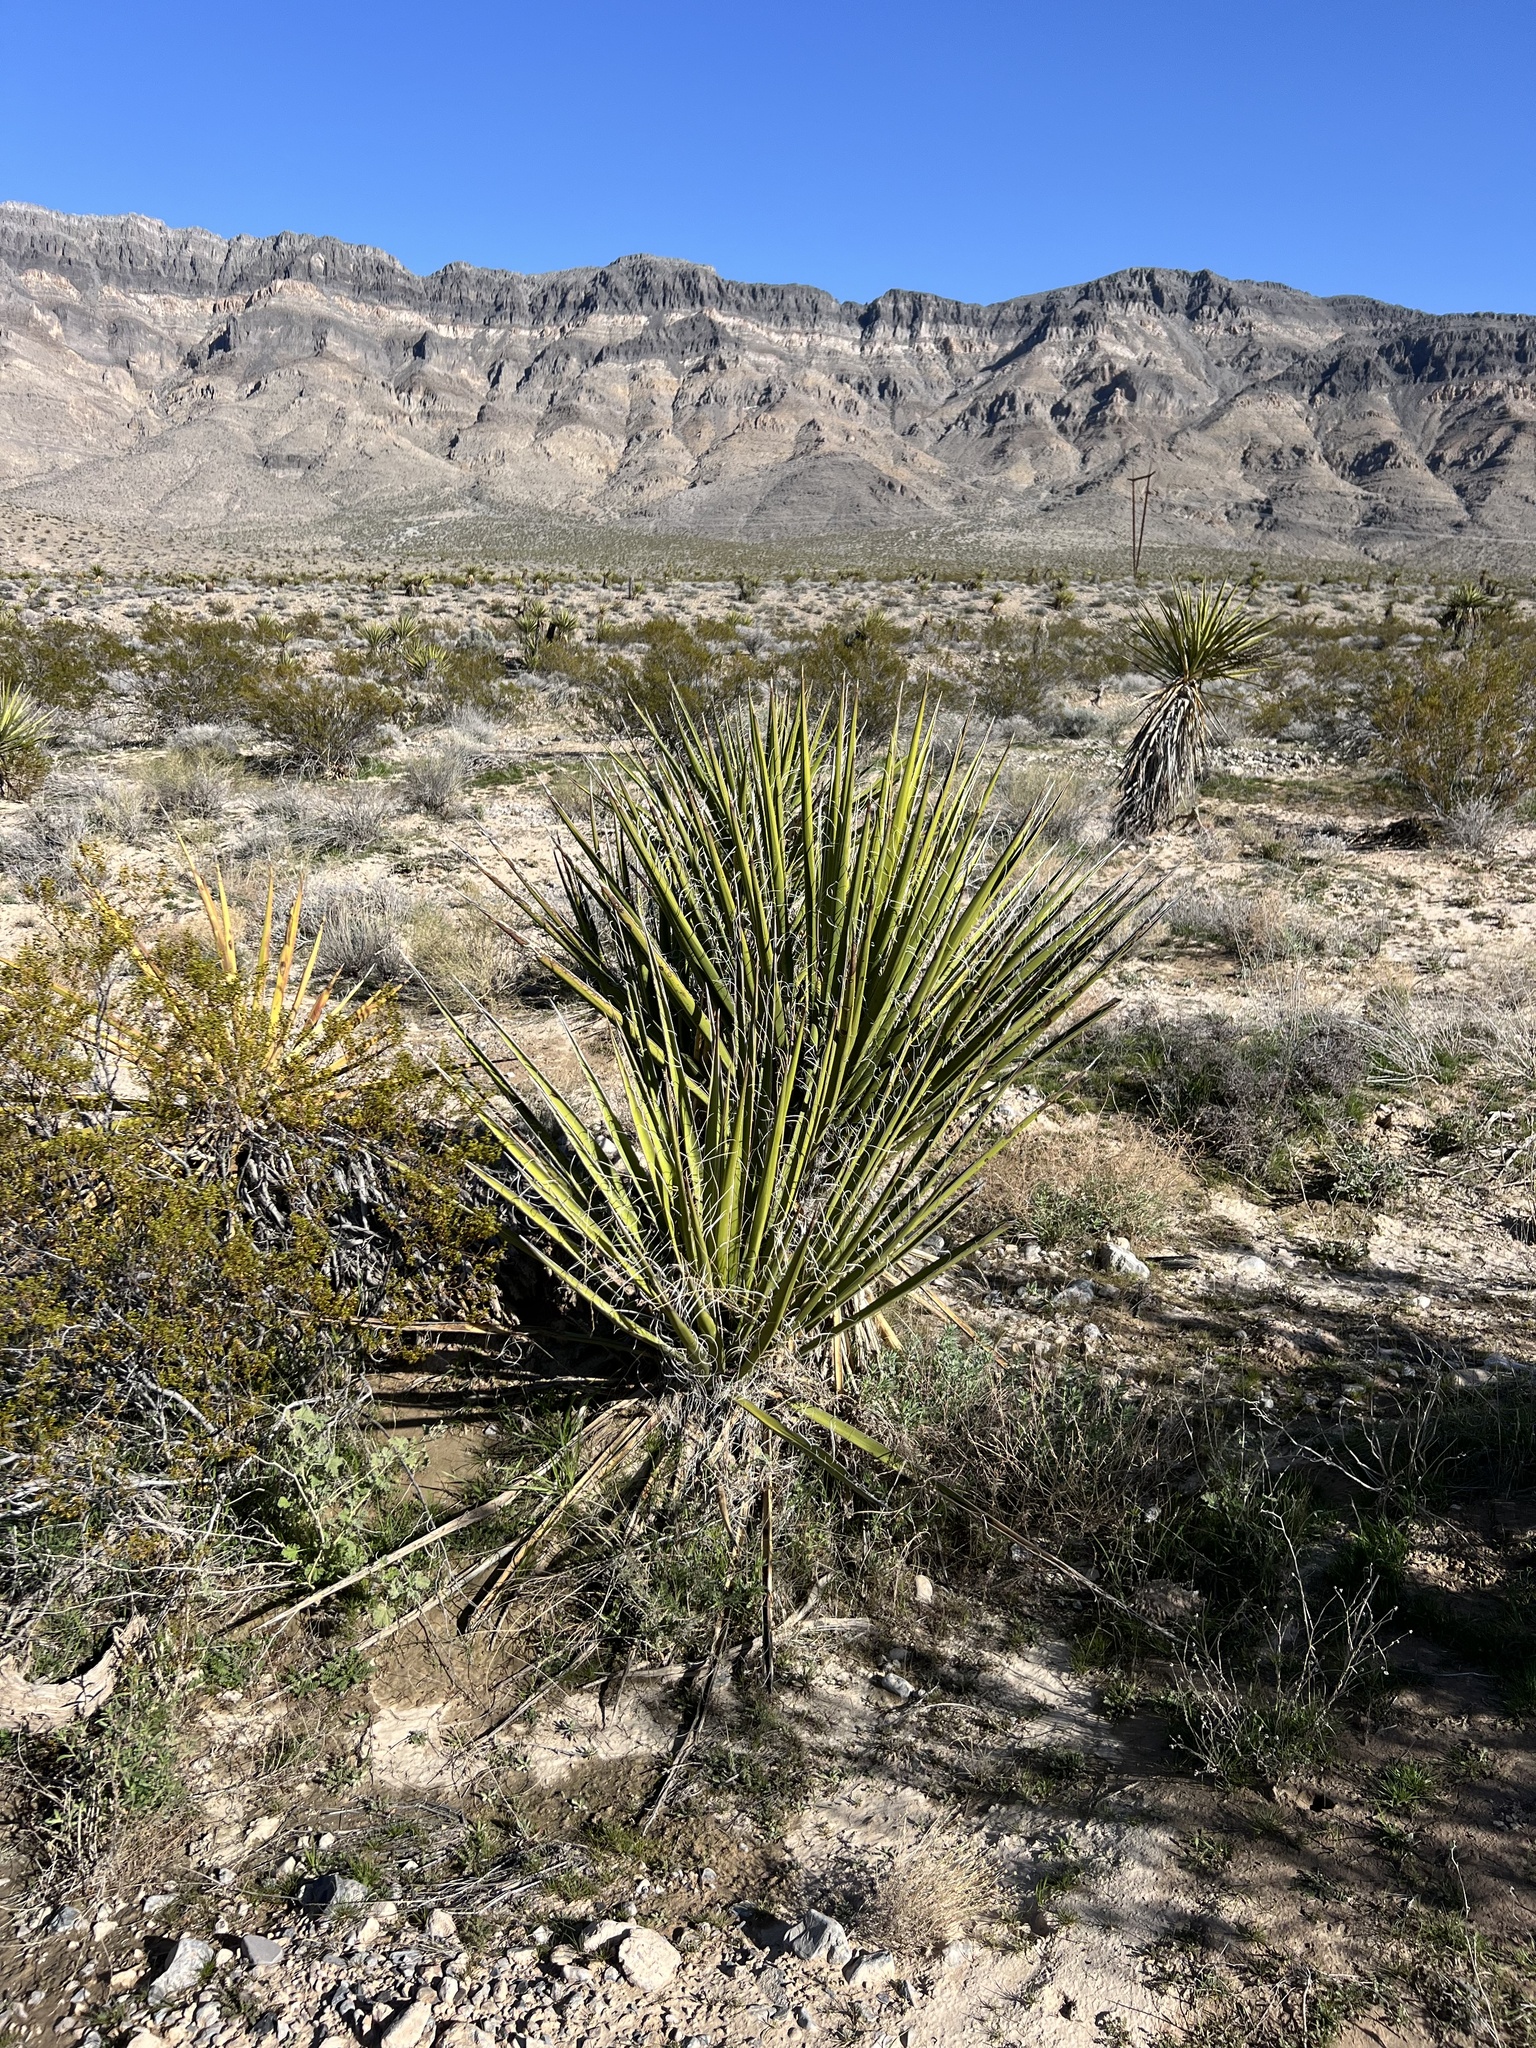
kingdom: Plantae
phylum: Tracheophyta
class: Liliopsida
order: Asparagales
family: Asparagaceae
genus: Yucca
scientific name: Yucca schidigera
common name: Mojave yucca
